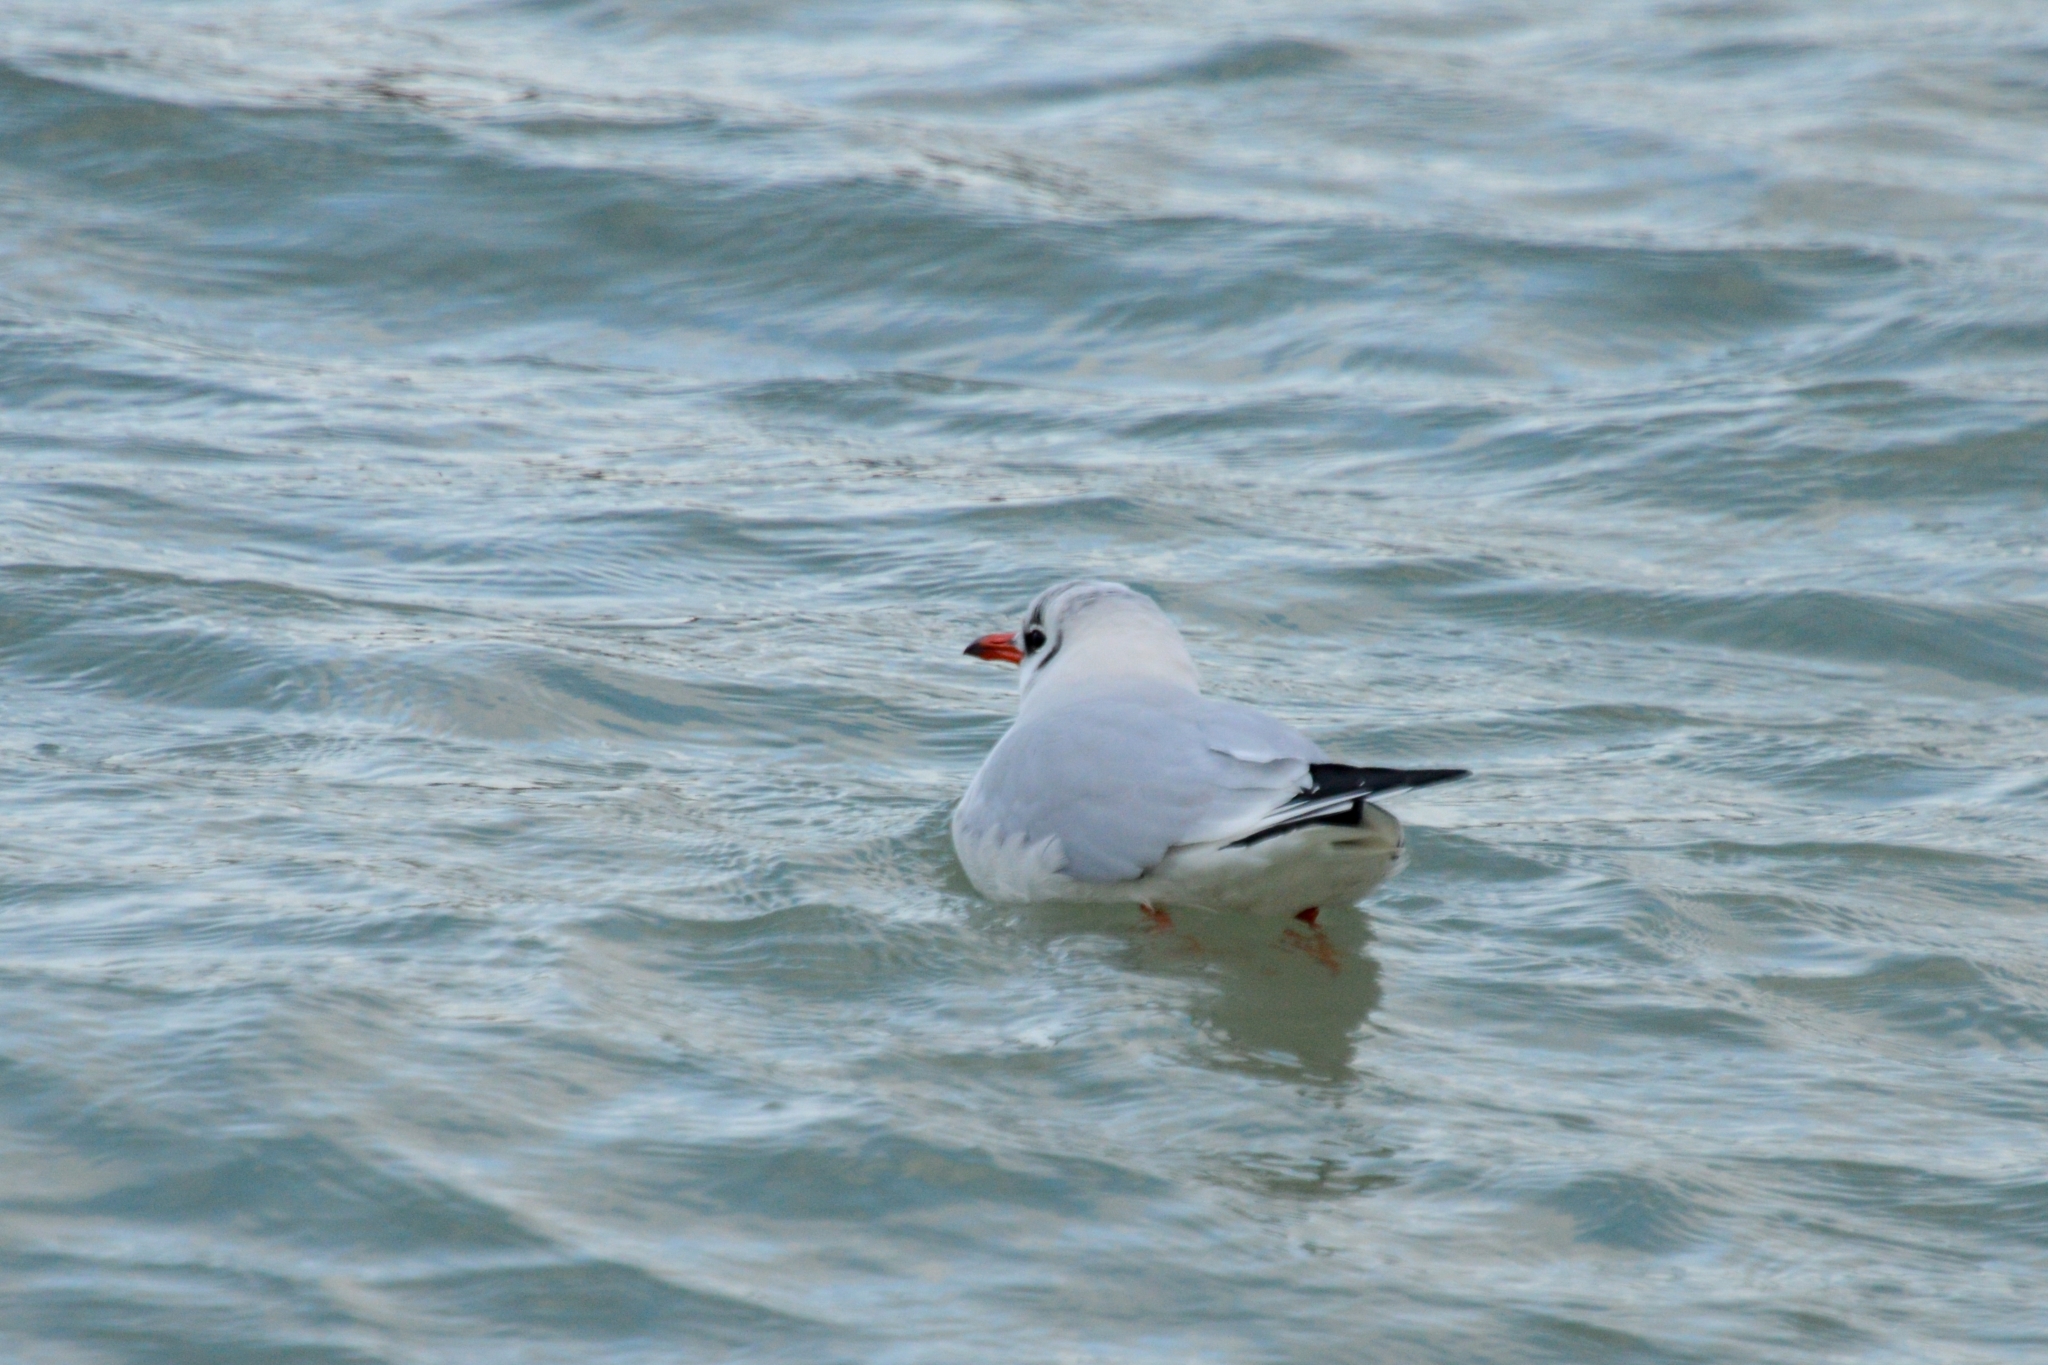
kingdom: Animalia
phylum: Chordata
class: Aves
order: Charadriiformes
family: Laridae
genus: Chroicocephalus
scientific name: Chroicocephalus ridibundus
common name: Black-headed gull
